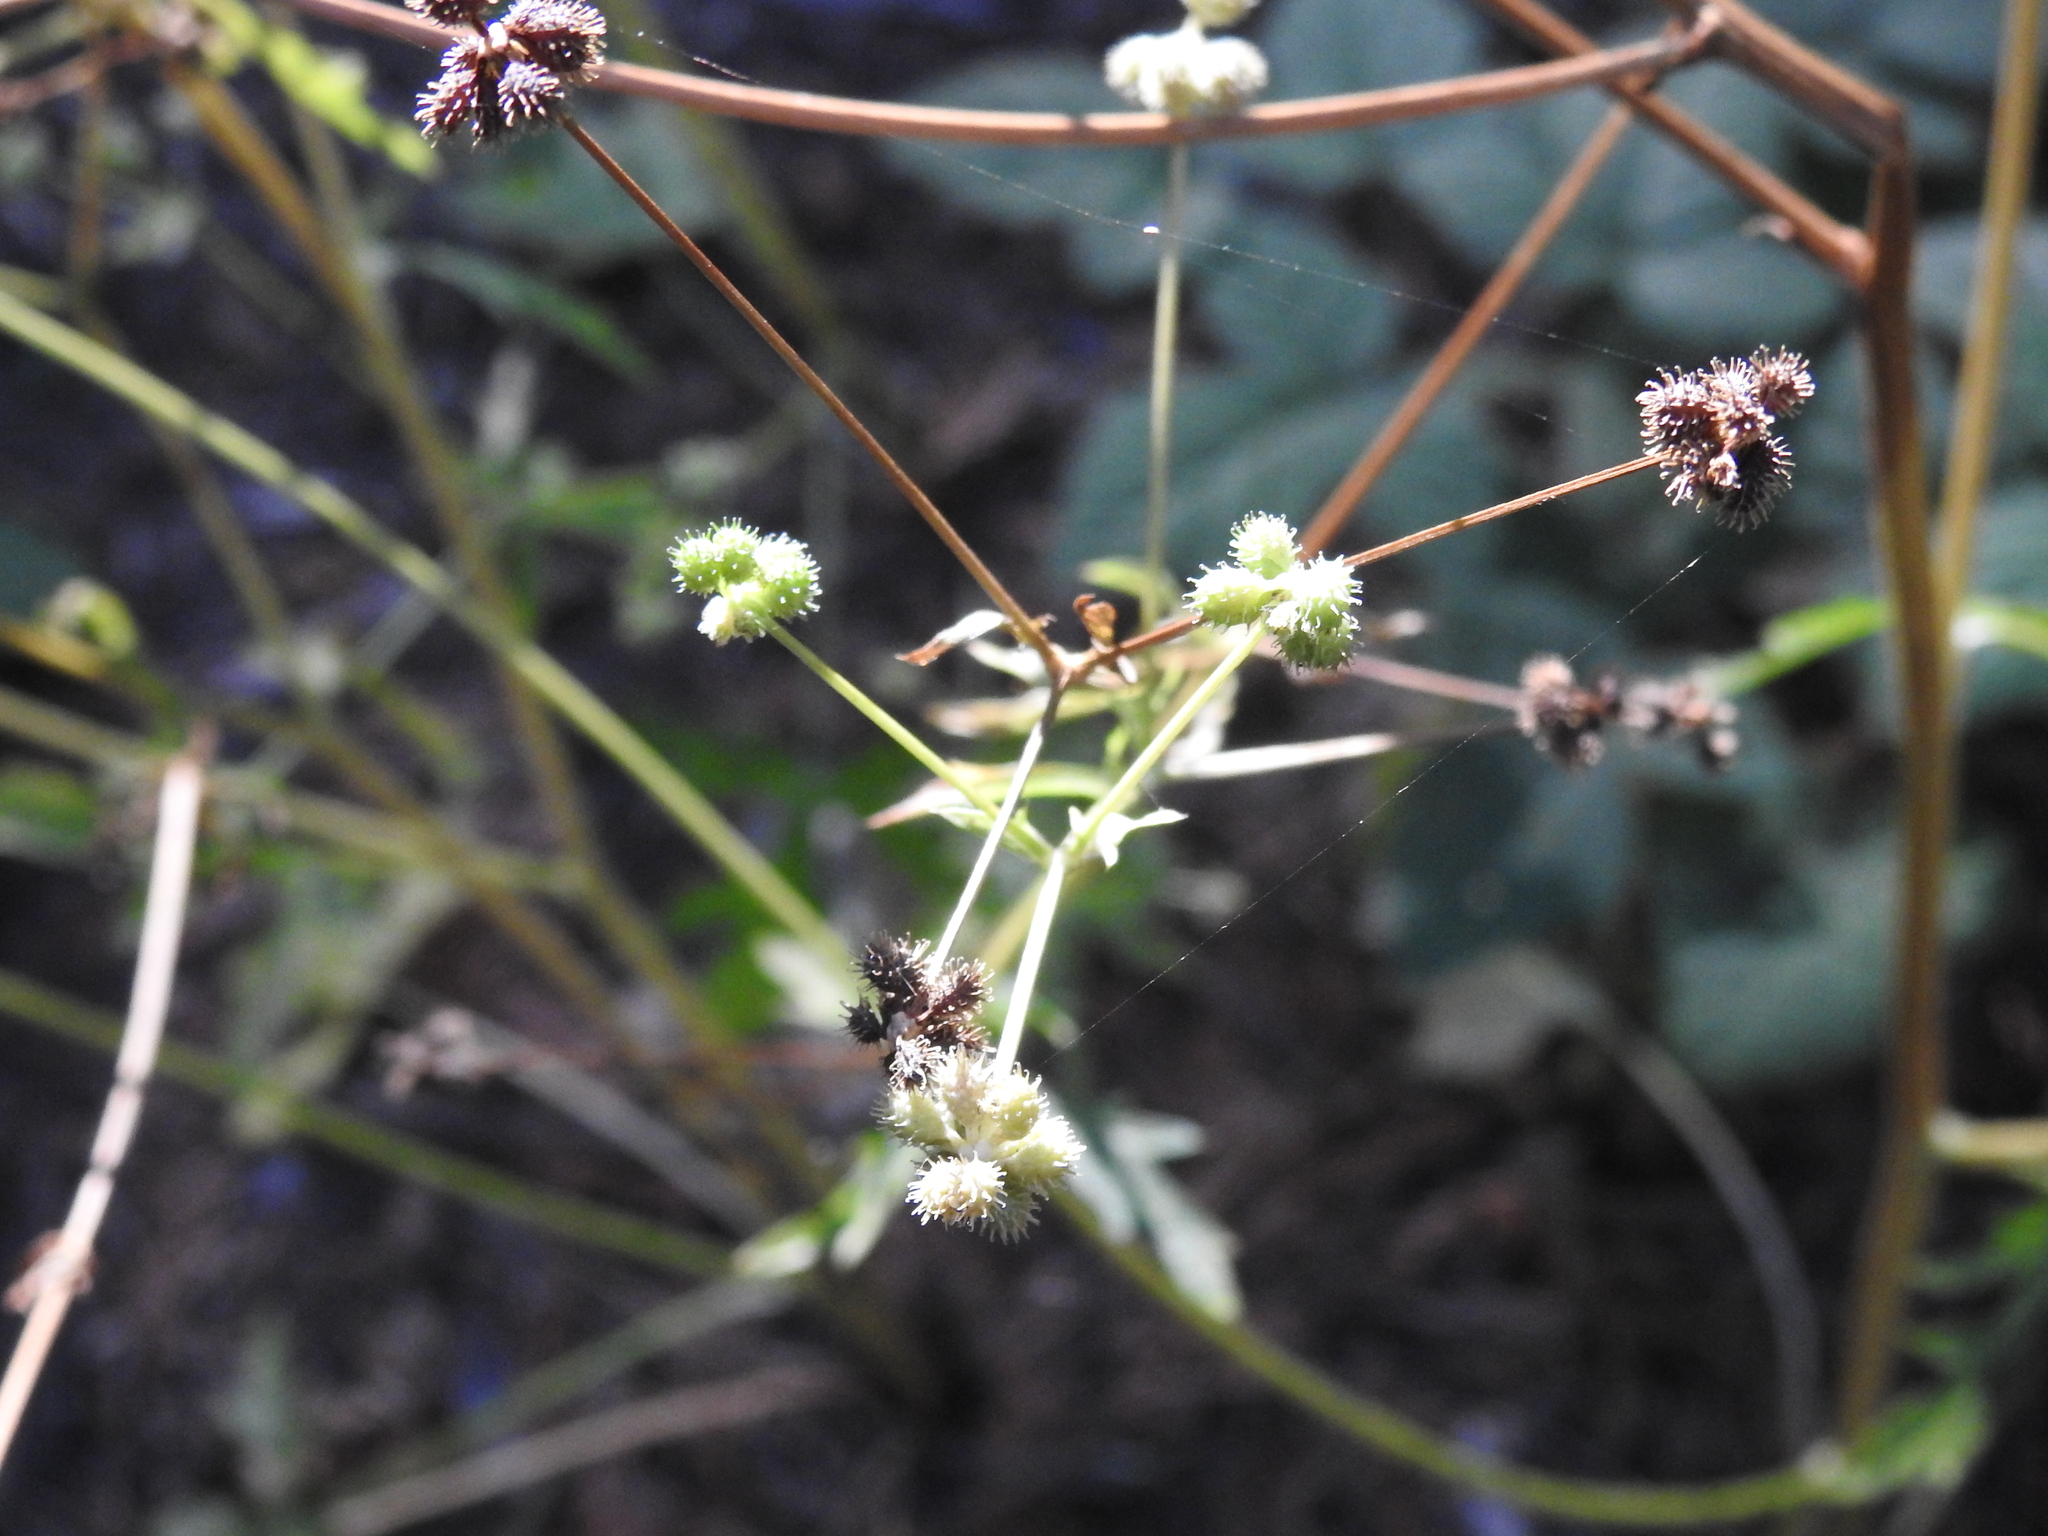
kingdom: Plantae
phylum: Tracheophyta
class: Magnoliopsida
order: Apiales
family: Apiaceae
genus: Sanicula
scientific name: Sanicula crassicaulis
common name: Western snakeroot
